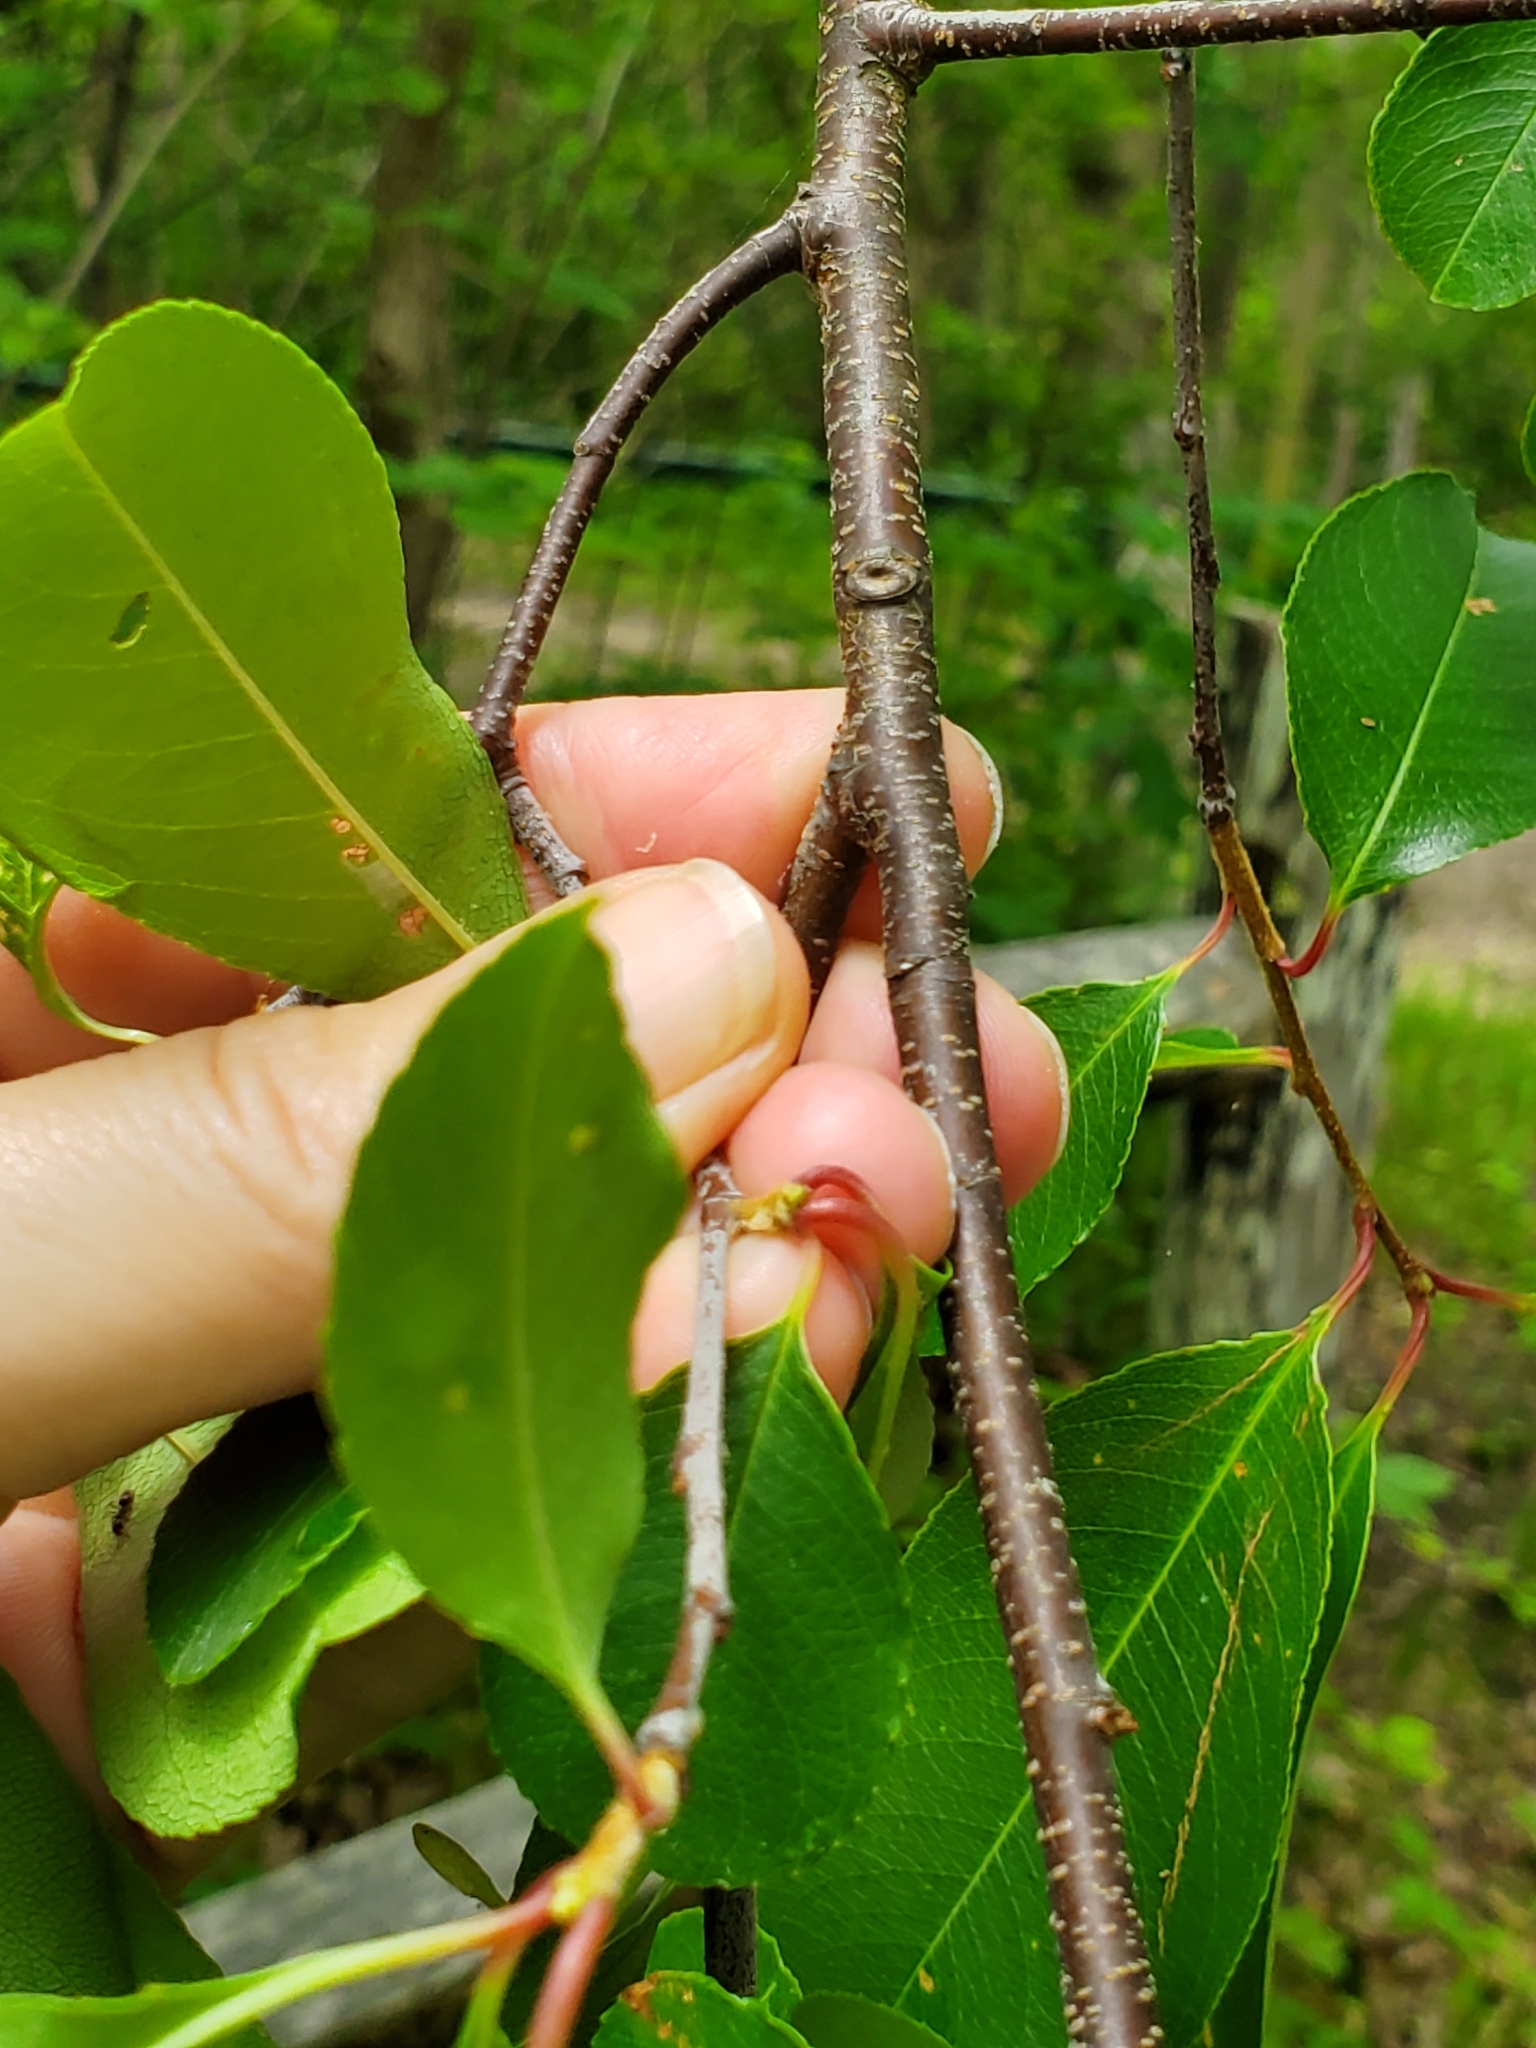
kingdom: Plantae
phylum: Tracheophyta
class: Magnoliopsida
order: Rosales
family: Rosaceae
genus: Prunus
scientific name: Prunus serotina
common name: Black cherry
